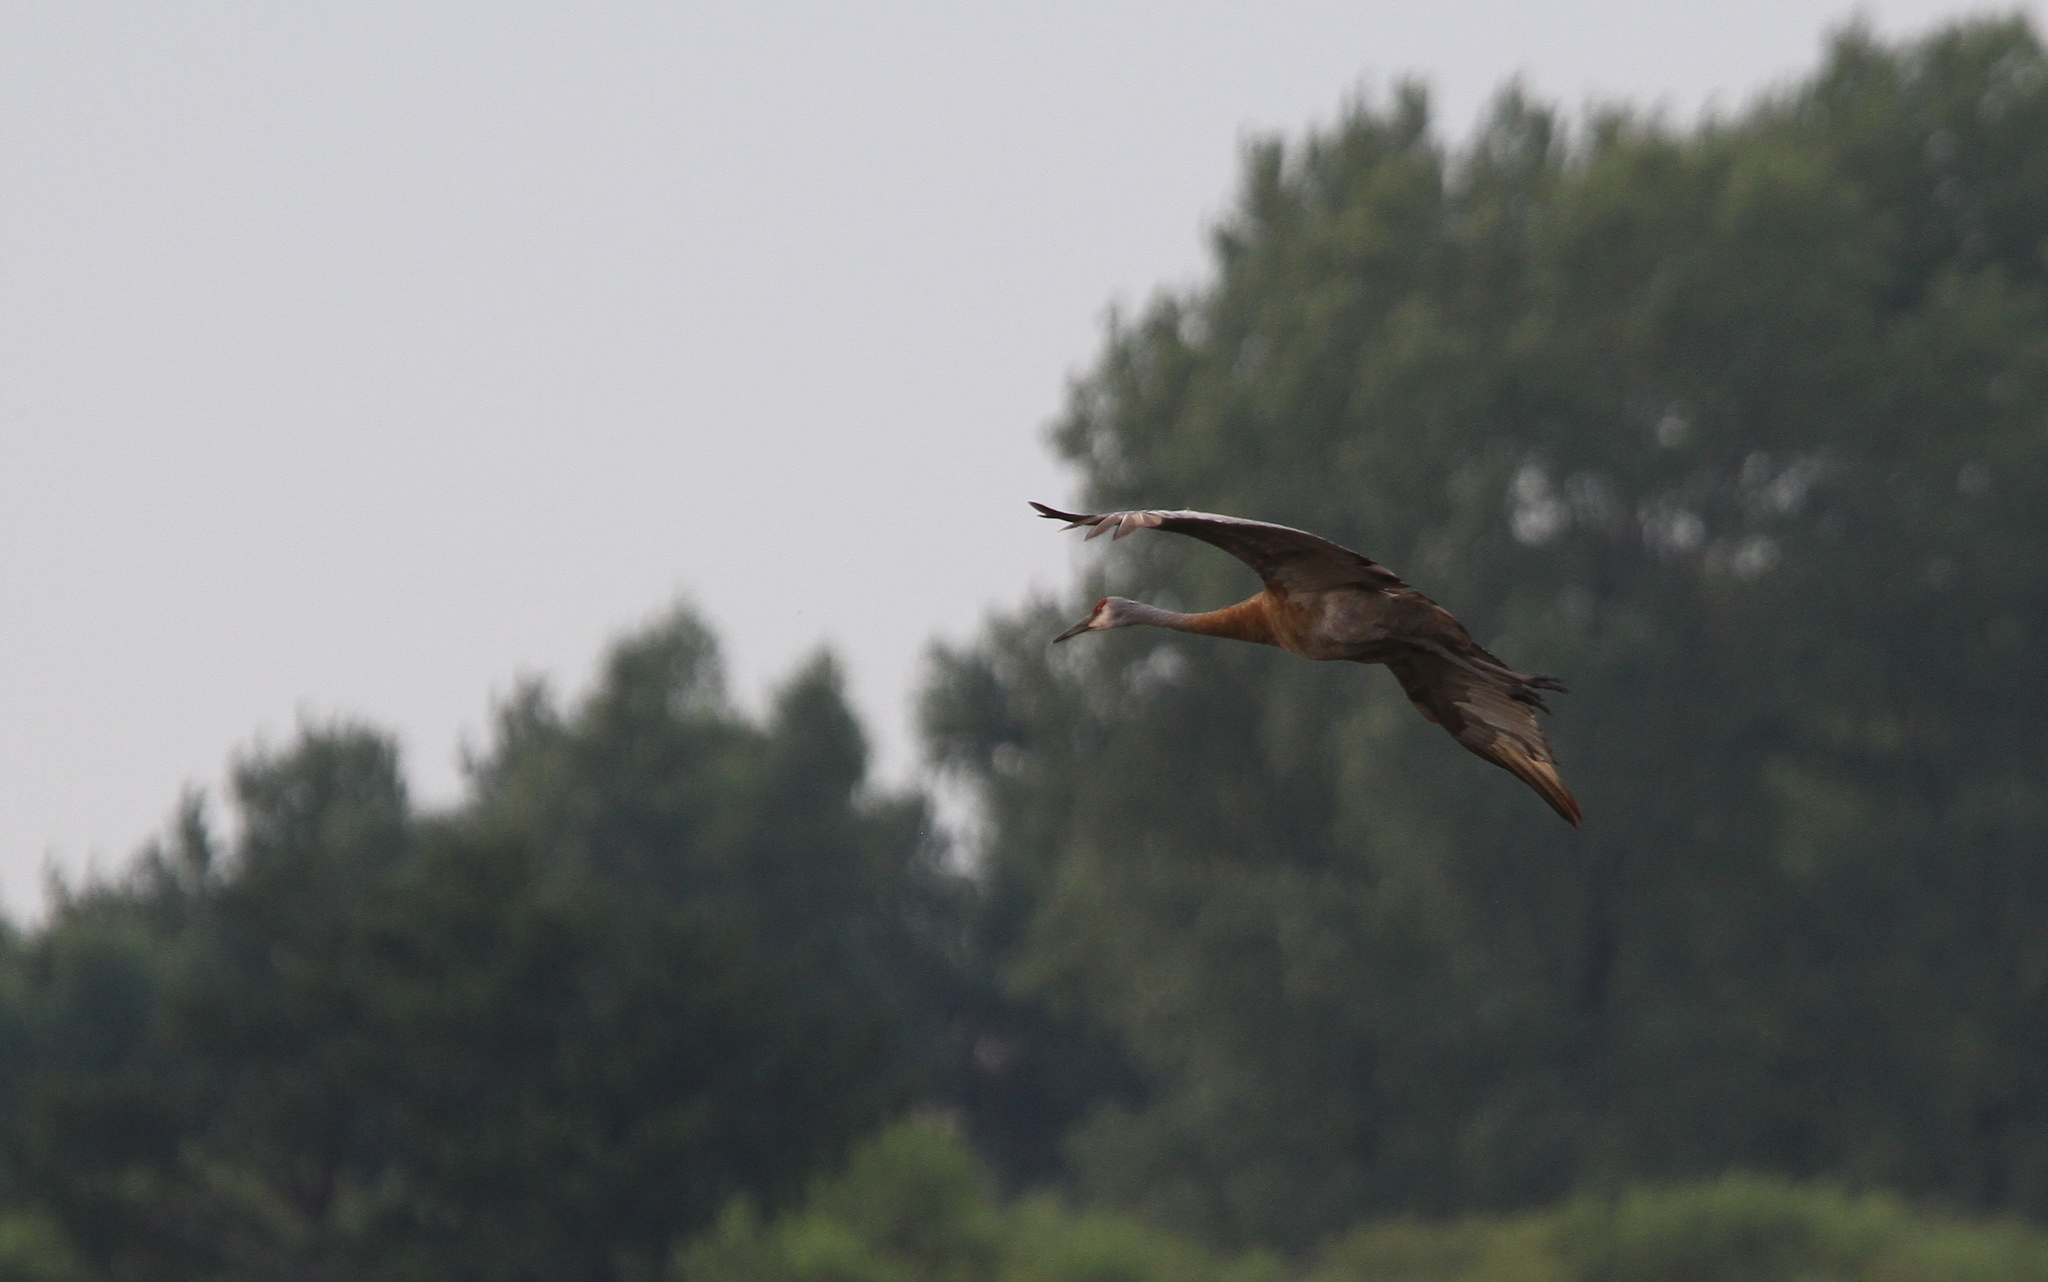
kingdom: Animalia
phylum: Chordata
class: Aves
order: Gruiformes
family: Gruidae
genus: Grus
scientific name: Grus canadensis
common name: Sandhill crane
